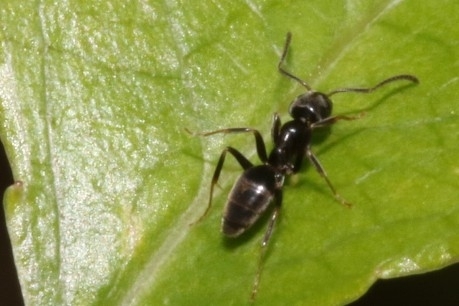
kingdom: Animalia
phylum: Arthropoda
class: Insecta
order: Hymenoptera
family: Formicidae
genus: Tapinoma
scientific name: Tapinoma sessile
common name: Odorous house ant
